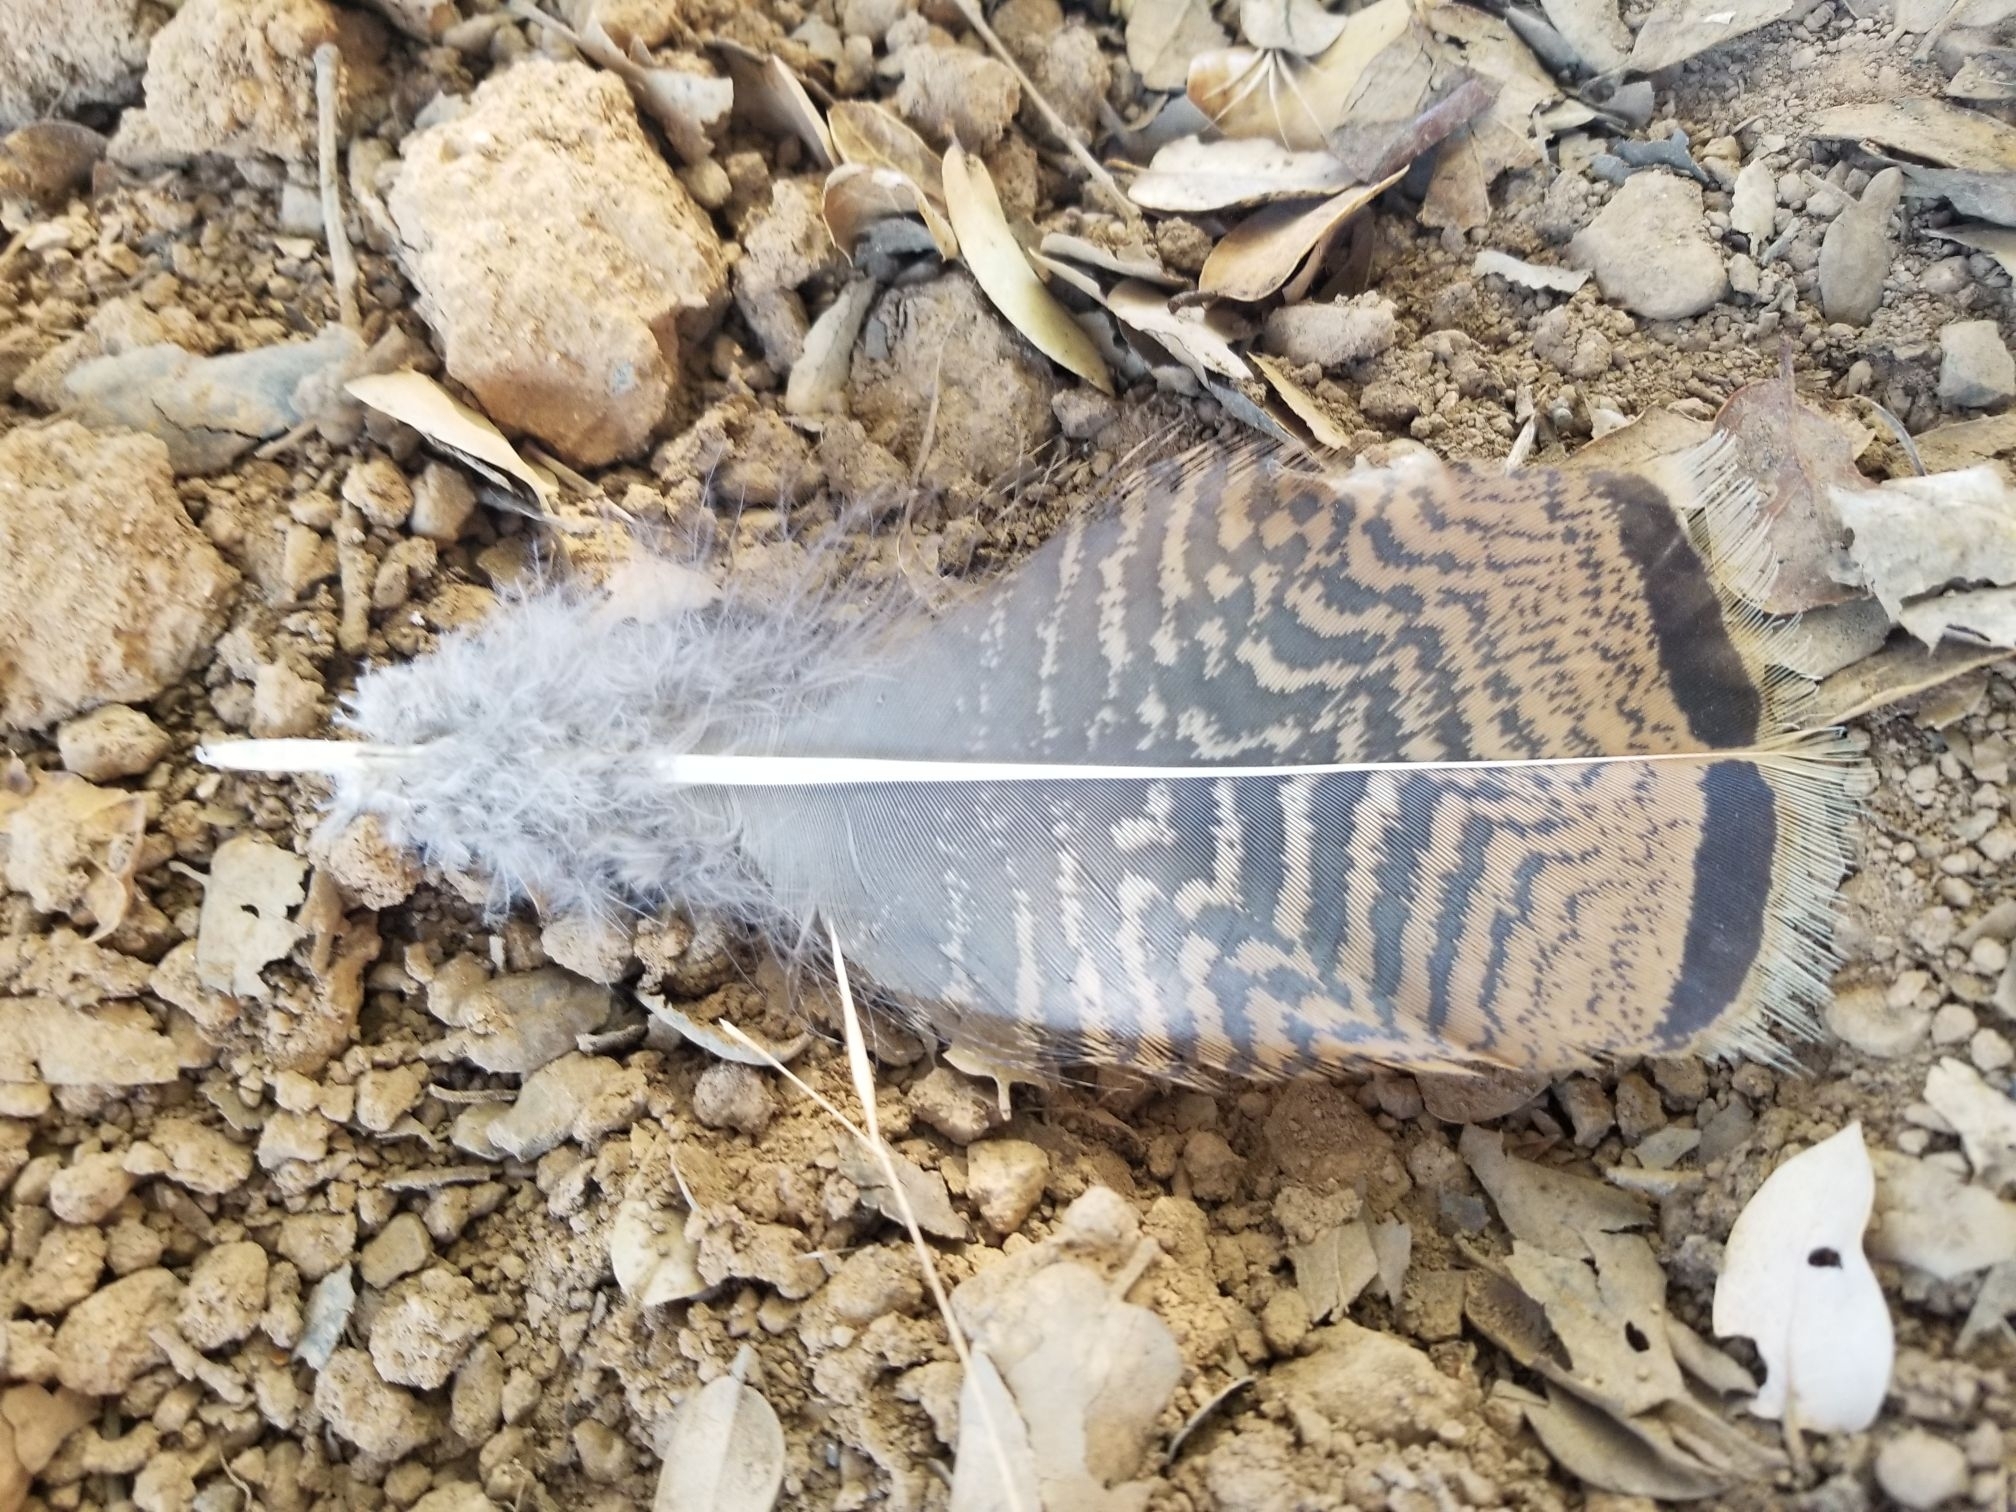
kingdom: Animalia
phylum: Chordata
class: Aves
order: Galliformes
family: Phasianidae
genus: Meleagris
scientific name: Meleagris gallopavo
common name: Wild turkey
